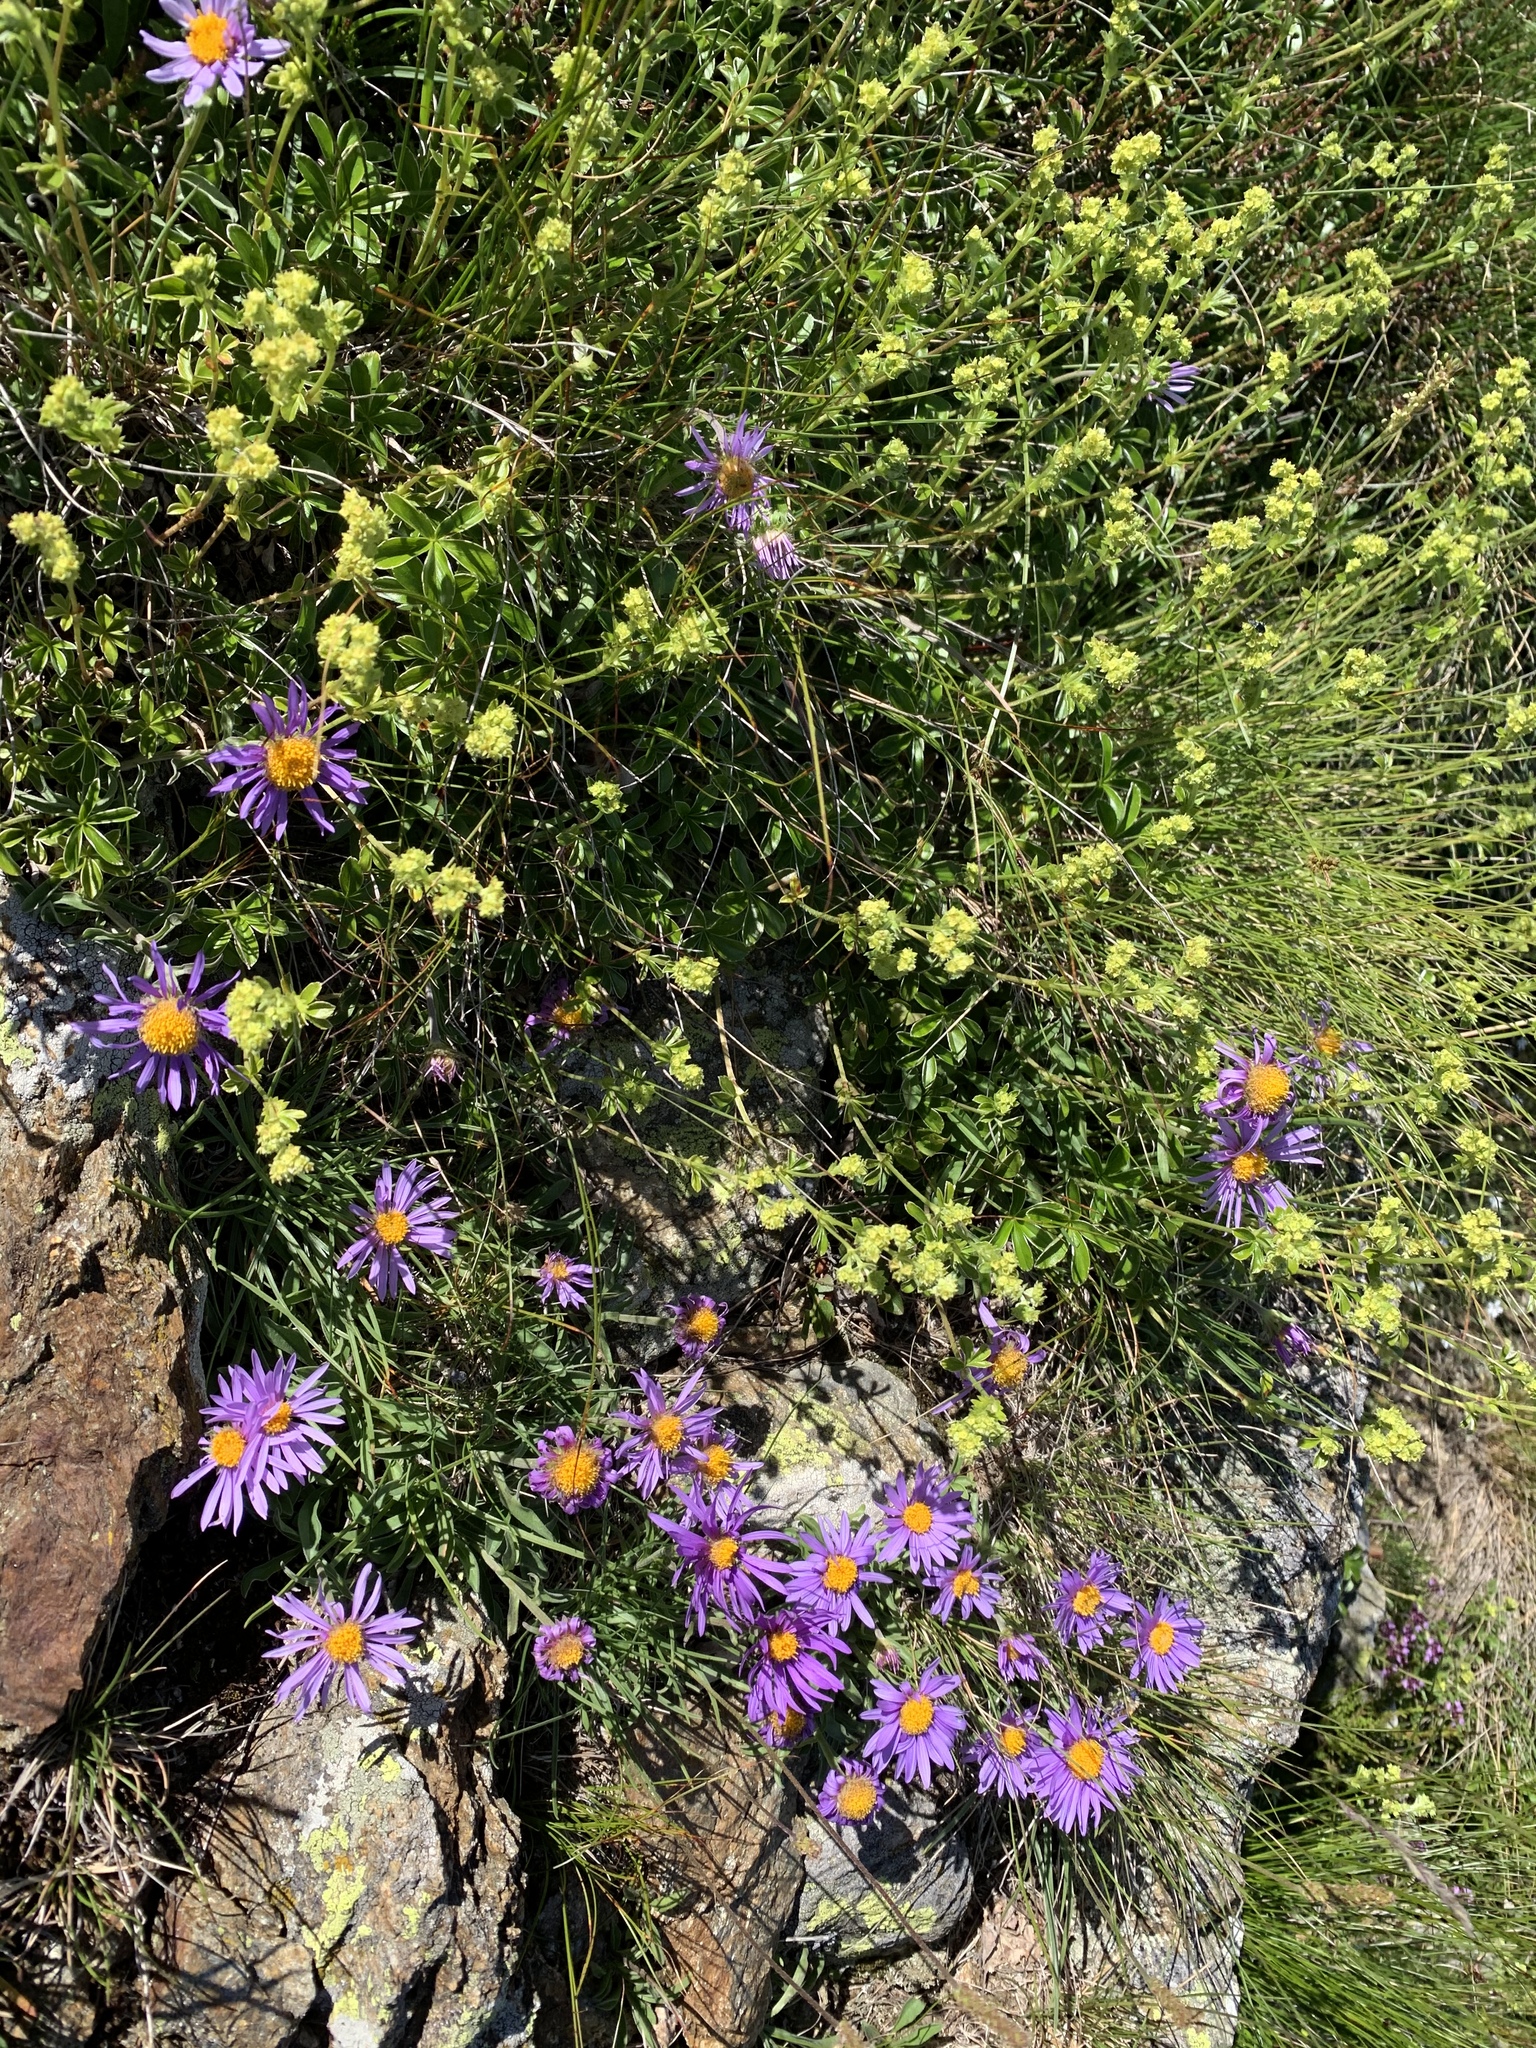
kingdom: Plantae
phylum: Tracheophyta
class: Magnoliopsida
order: Asterales
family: Asteraceae
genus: Aster
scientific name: Aster alpinus
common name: Alpine aster
